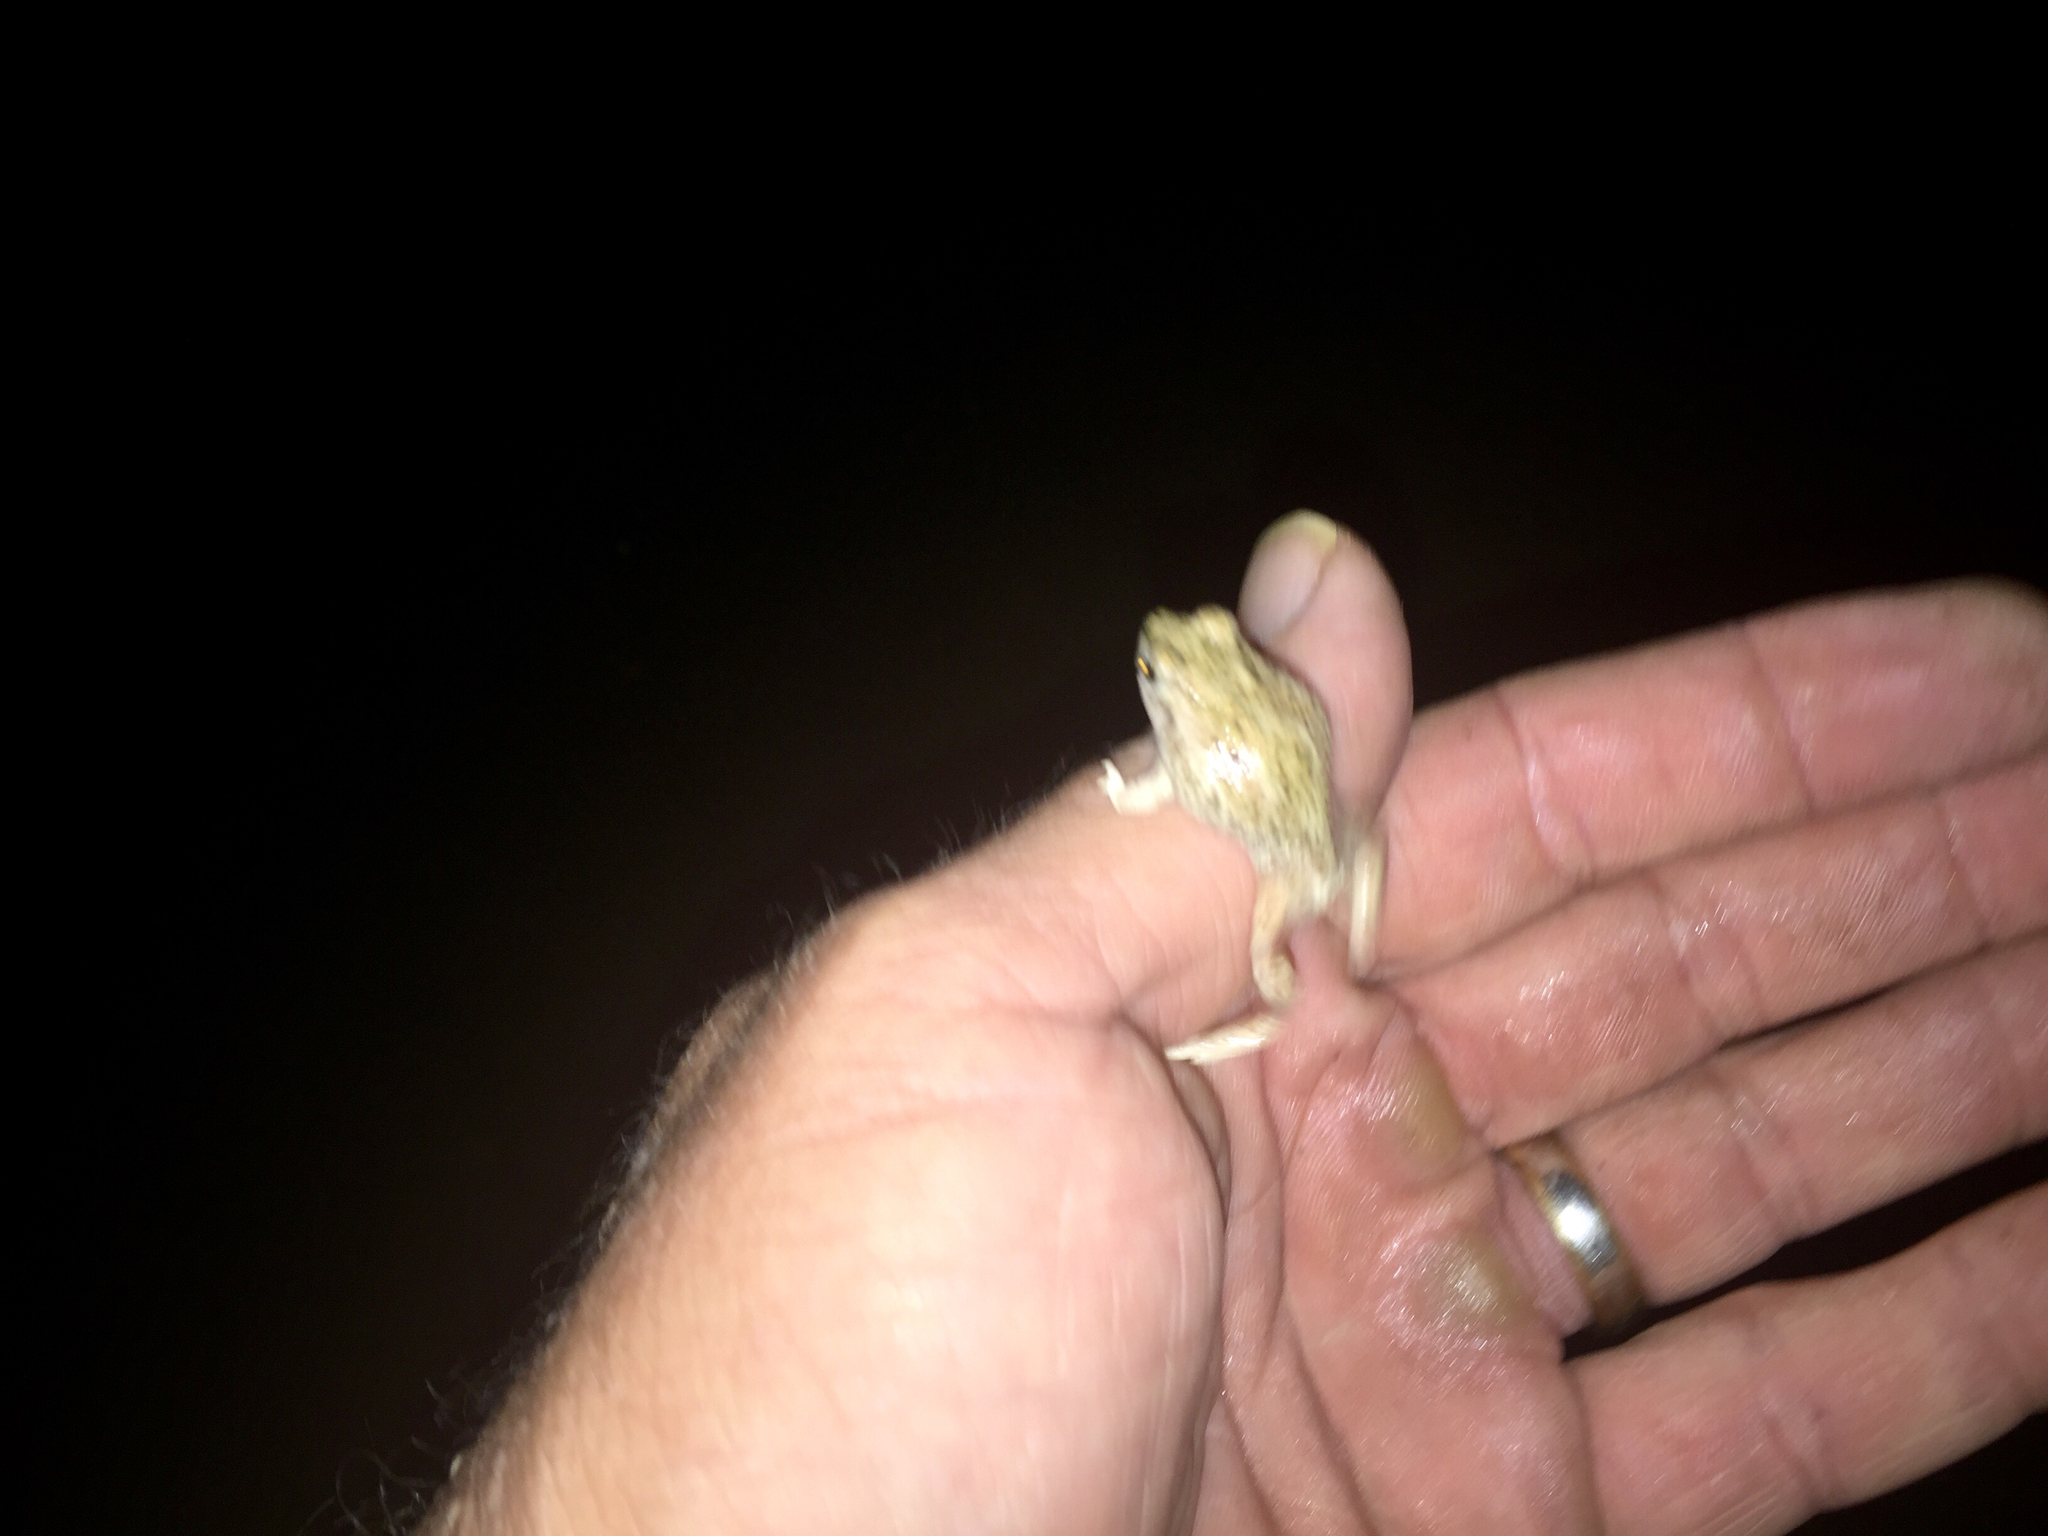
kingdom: Animalia
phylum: Chordata
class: Amphibia
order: Anura
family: Scaphiopodidae
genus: Spea
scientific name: Spea multiplicata
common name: Mexican spadefoot
